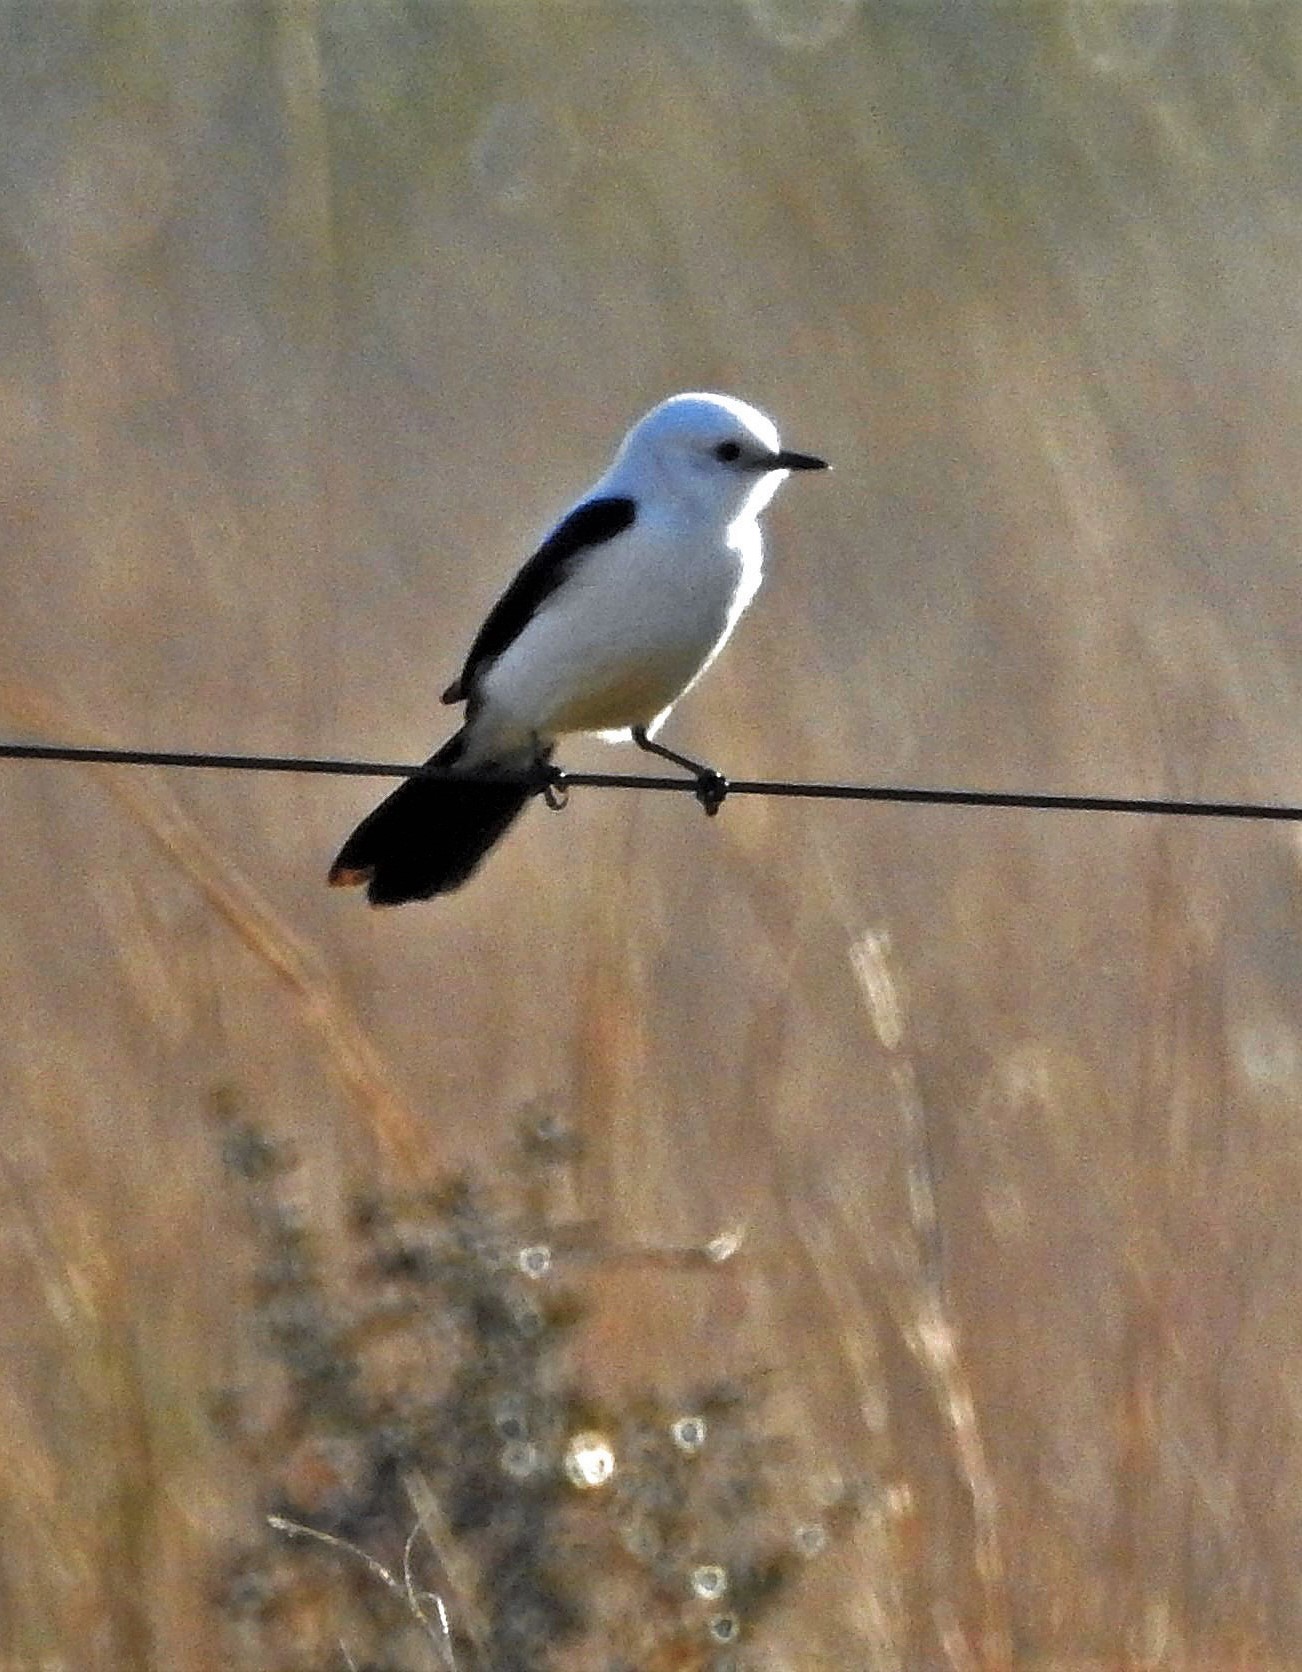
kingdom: Animalia
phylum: Chordata
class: Aves
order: Passeriformes
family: Tyrannidae
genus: Heteroxolmis
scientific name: Heteroxolmis dominicana
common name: Black-and-white monjita
